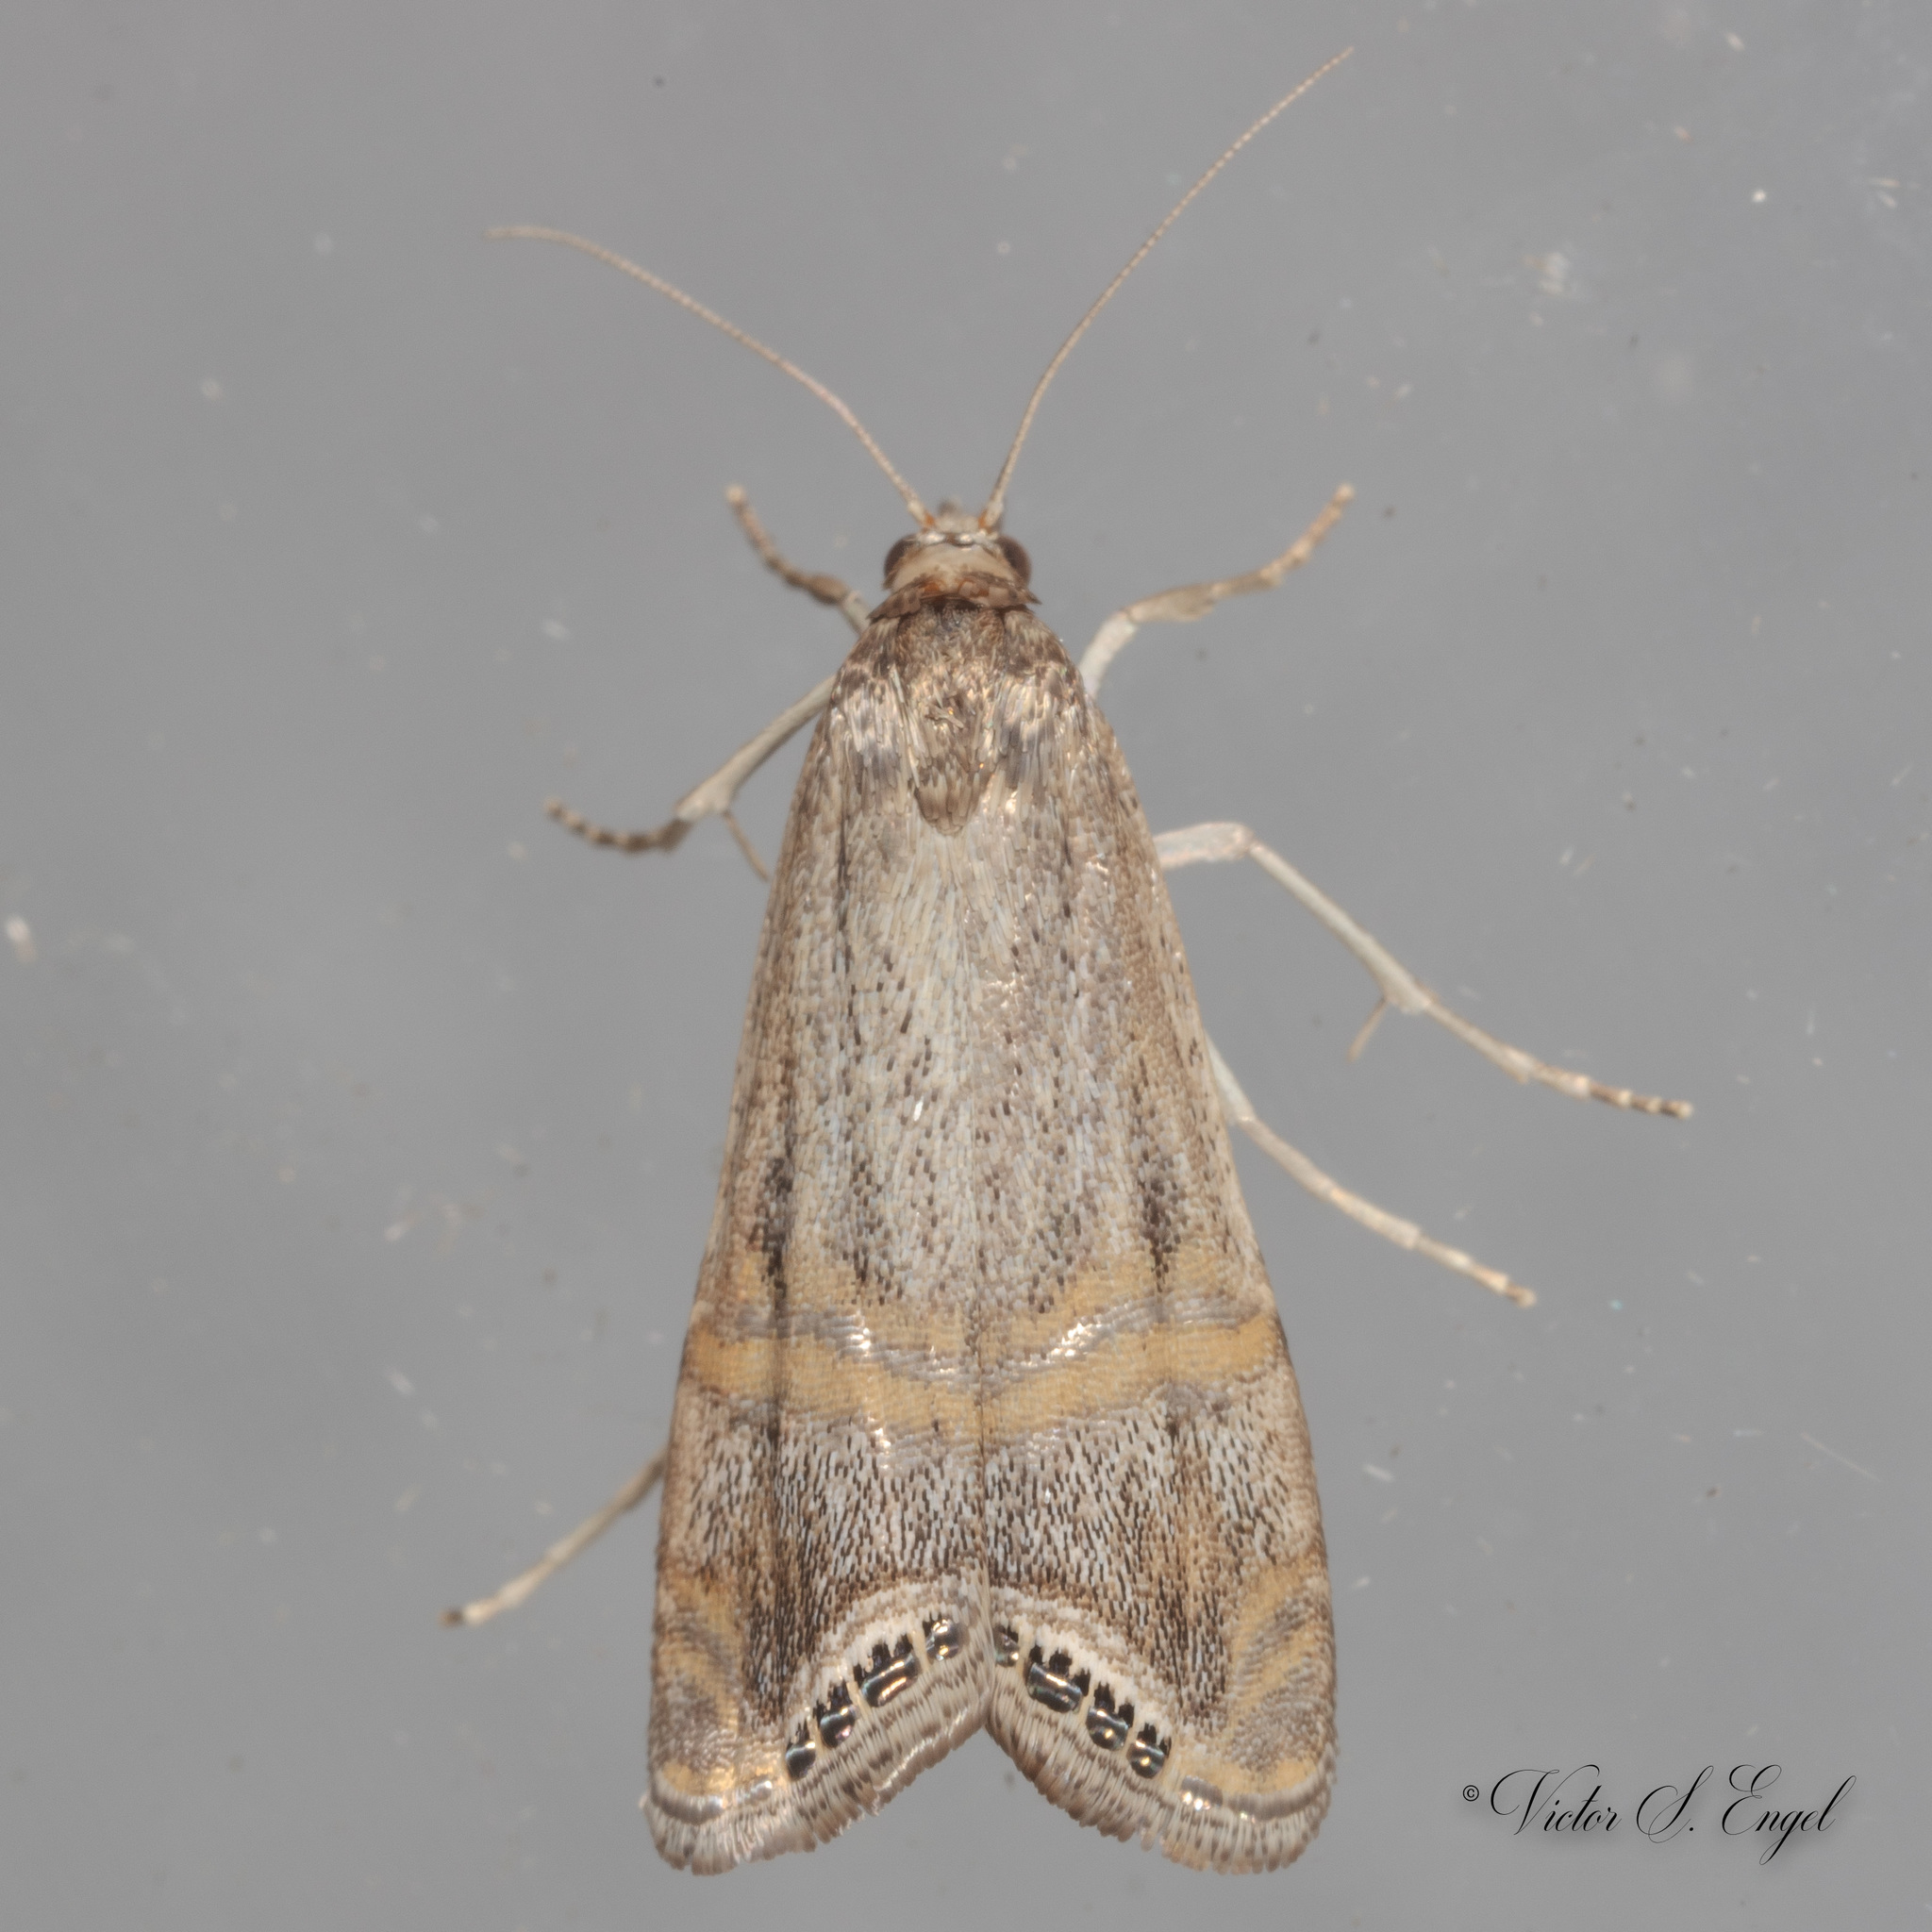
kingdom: Animalia
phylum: Arthropoda
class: Insecta
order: Lepidoptera
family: Crambidae
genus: Euchromius
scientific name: Euchromius ocellea
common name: Necklace veneer moth
